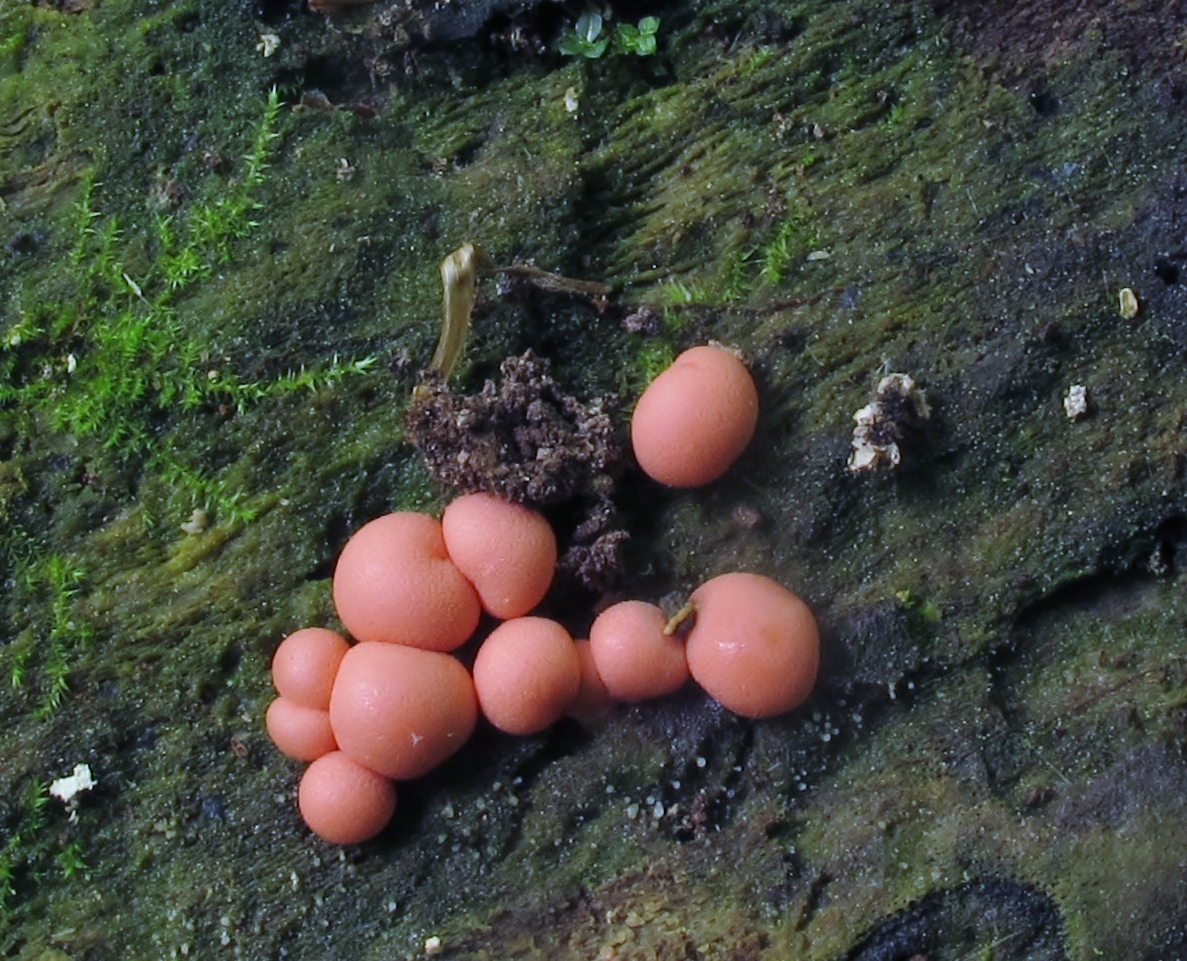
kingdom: Protozoa
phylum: Mycetozoa
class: Myxomycetes
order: Cribrariales
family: Tubiferaceae
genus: Lycogala
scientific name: Lycogala epidendrum
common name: Wolf's milk
